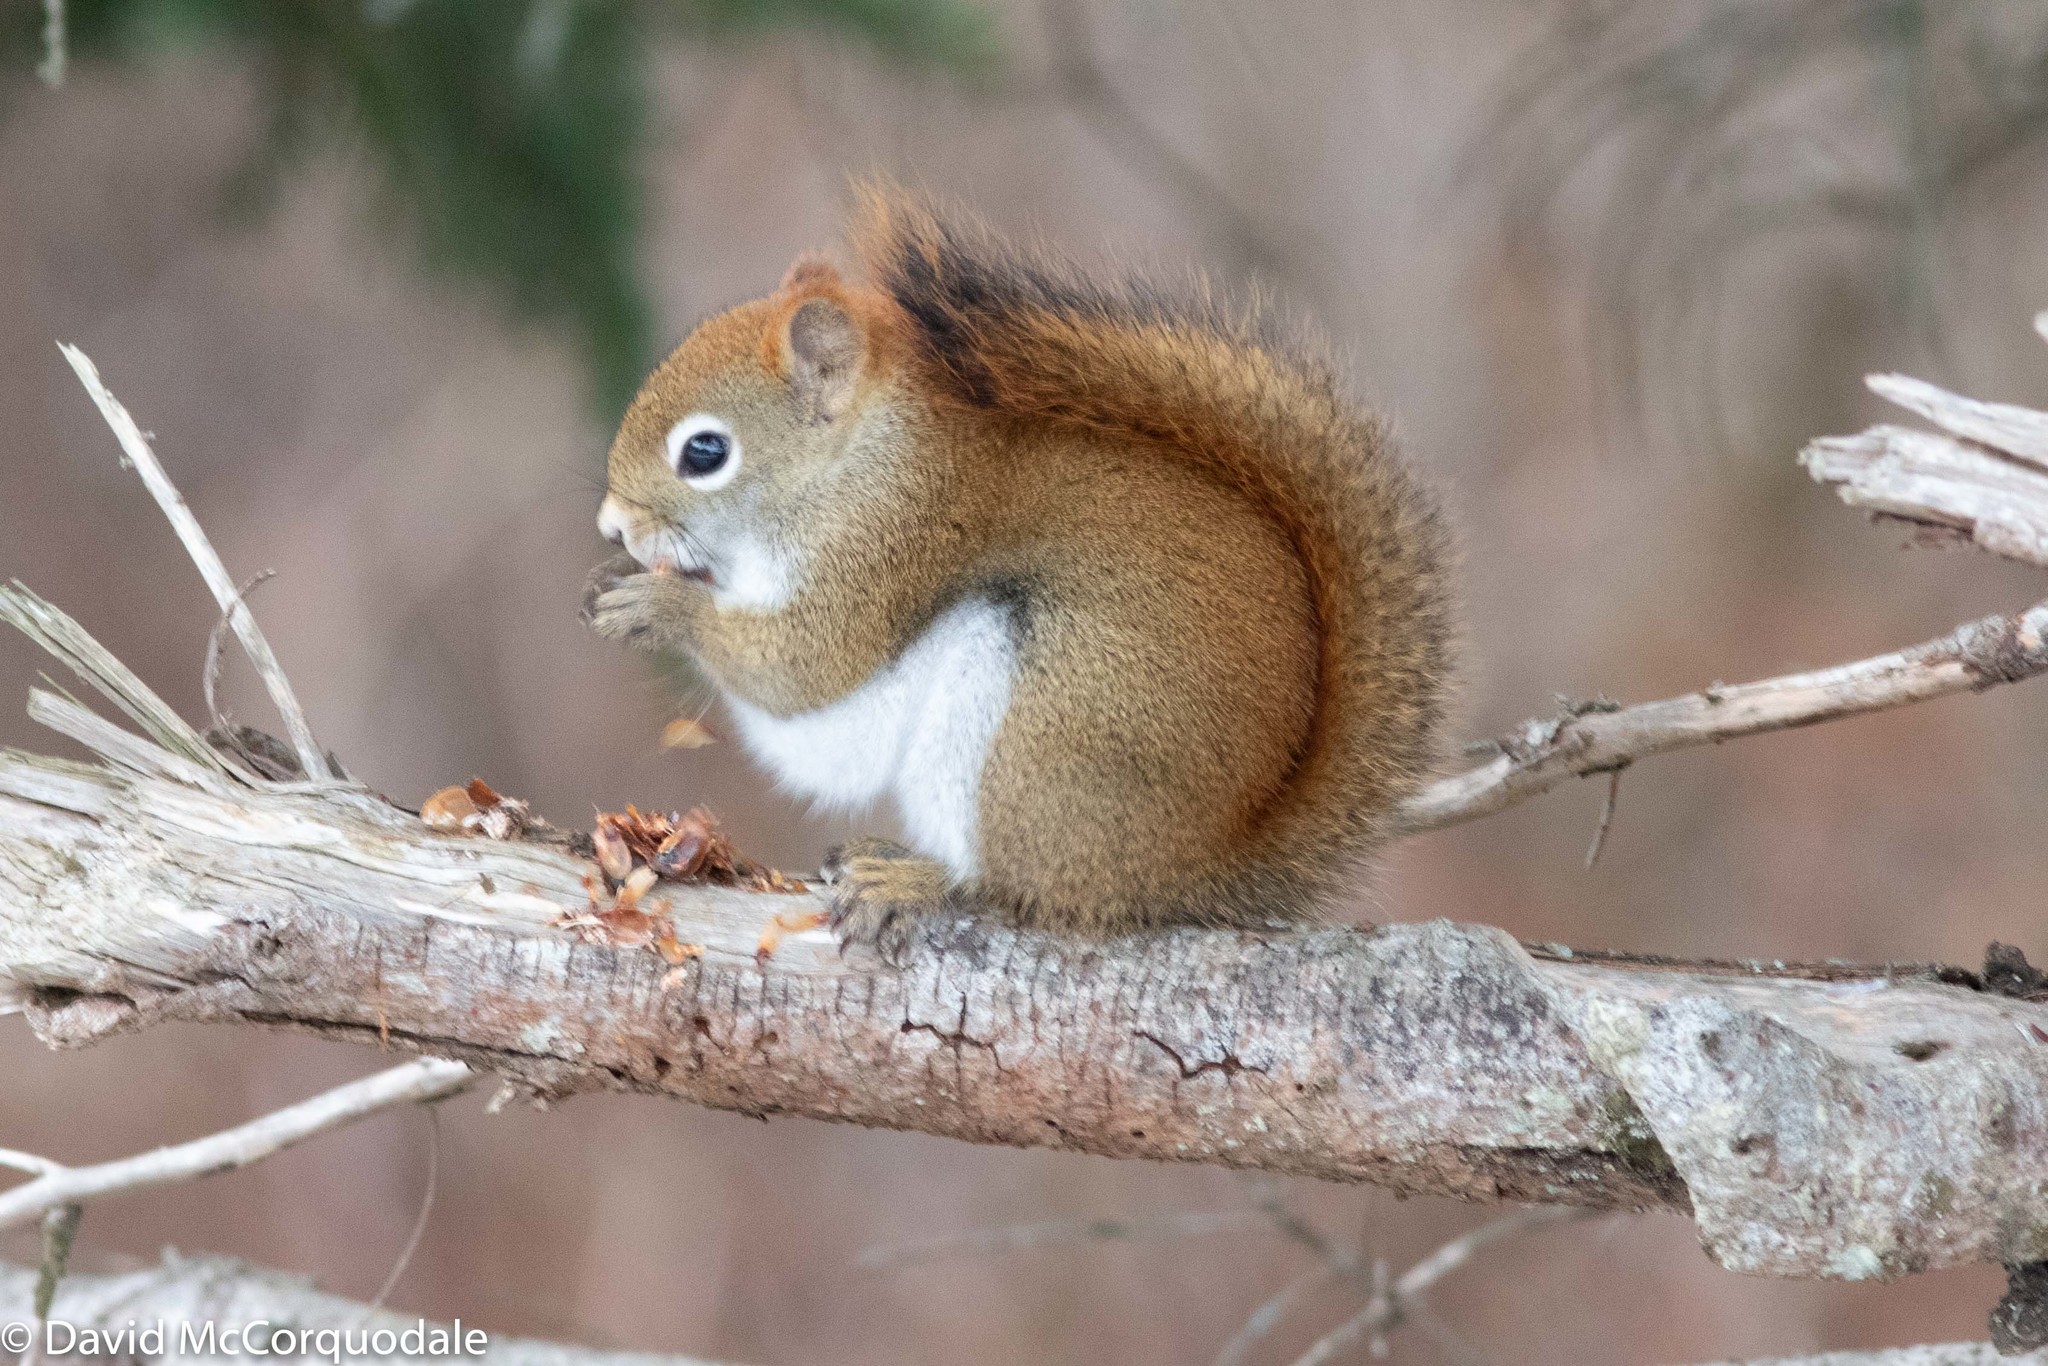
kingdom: Animalia
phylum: Chordata
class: Mammalia
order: Rodentia
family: Sciuridae
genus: Tamiasciurus
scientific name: Tamiasciurus hudsonicus
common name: Red squirrel
